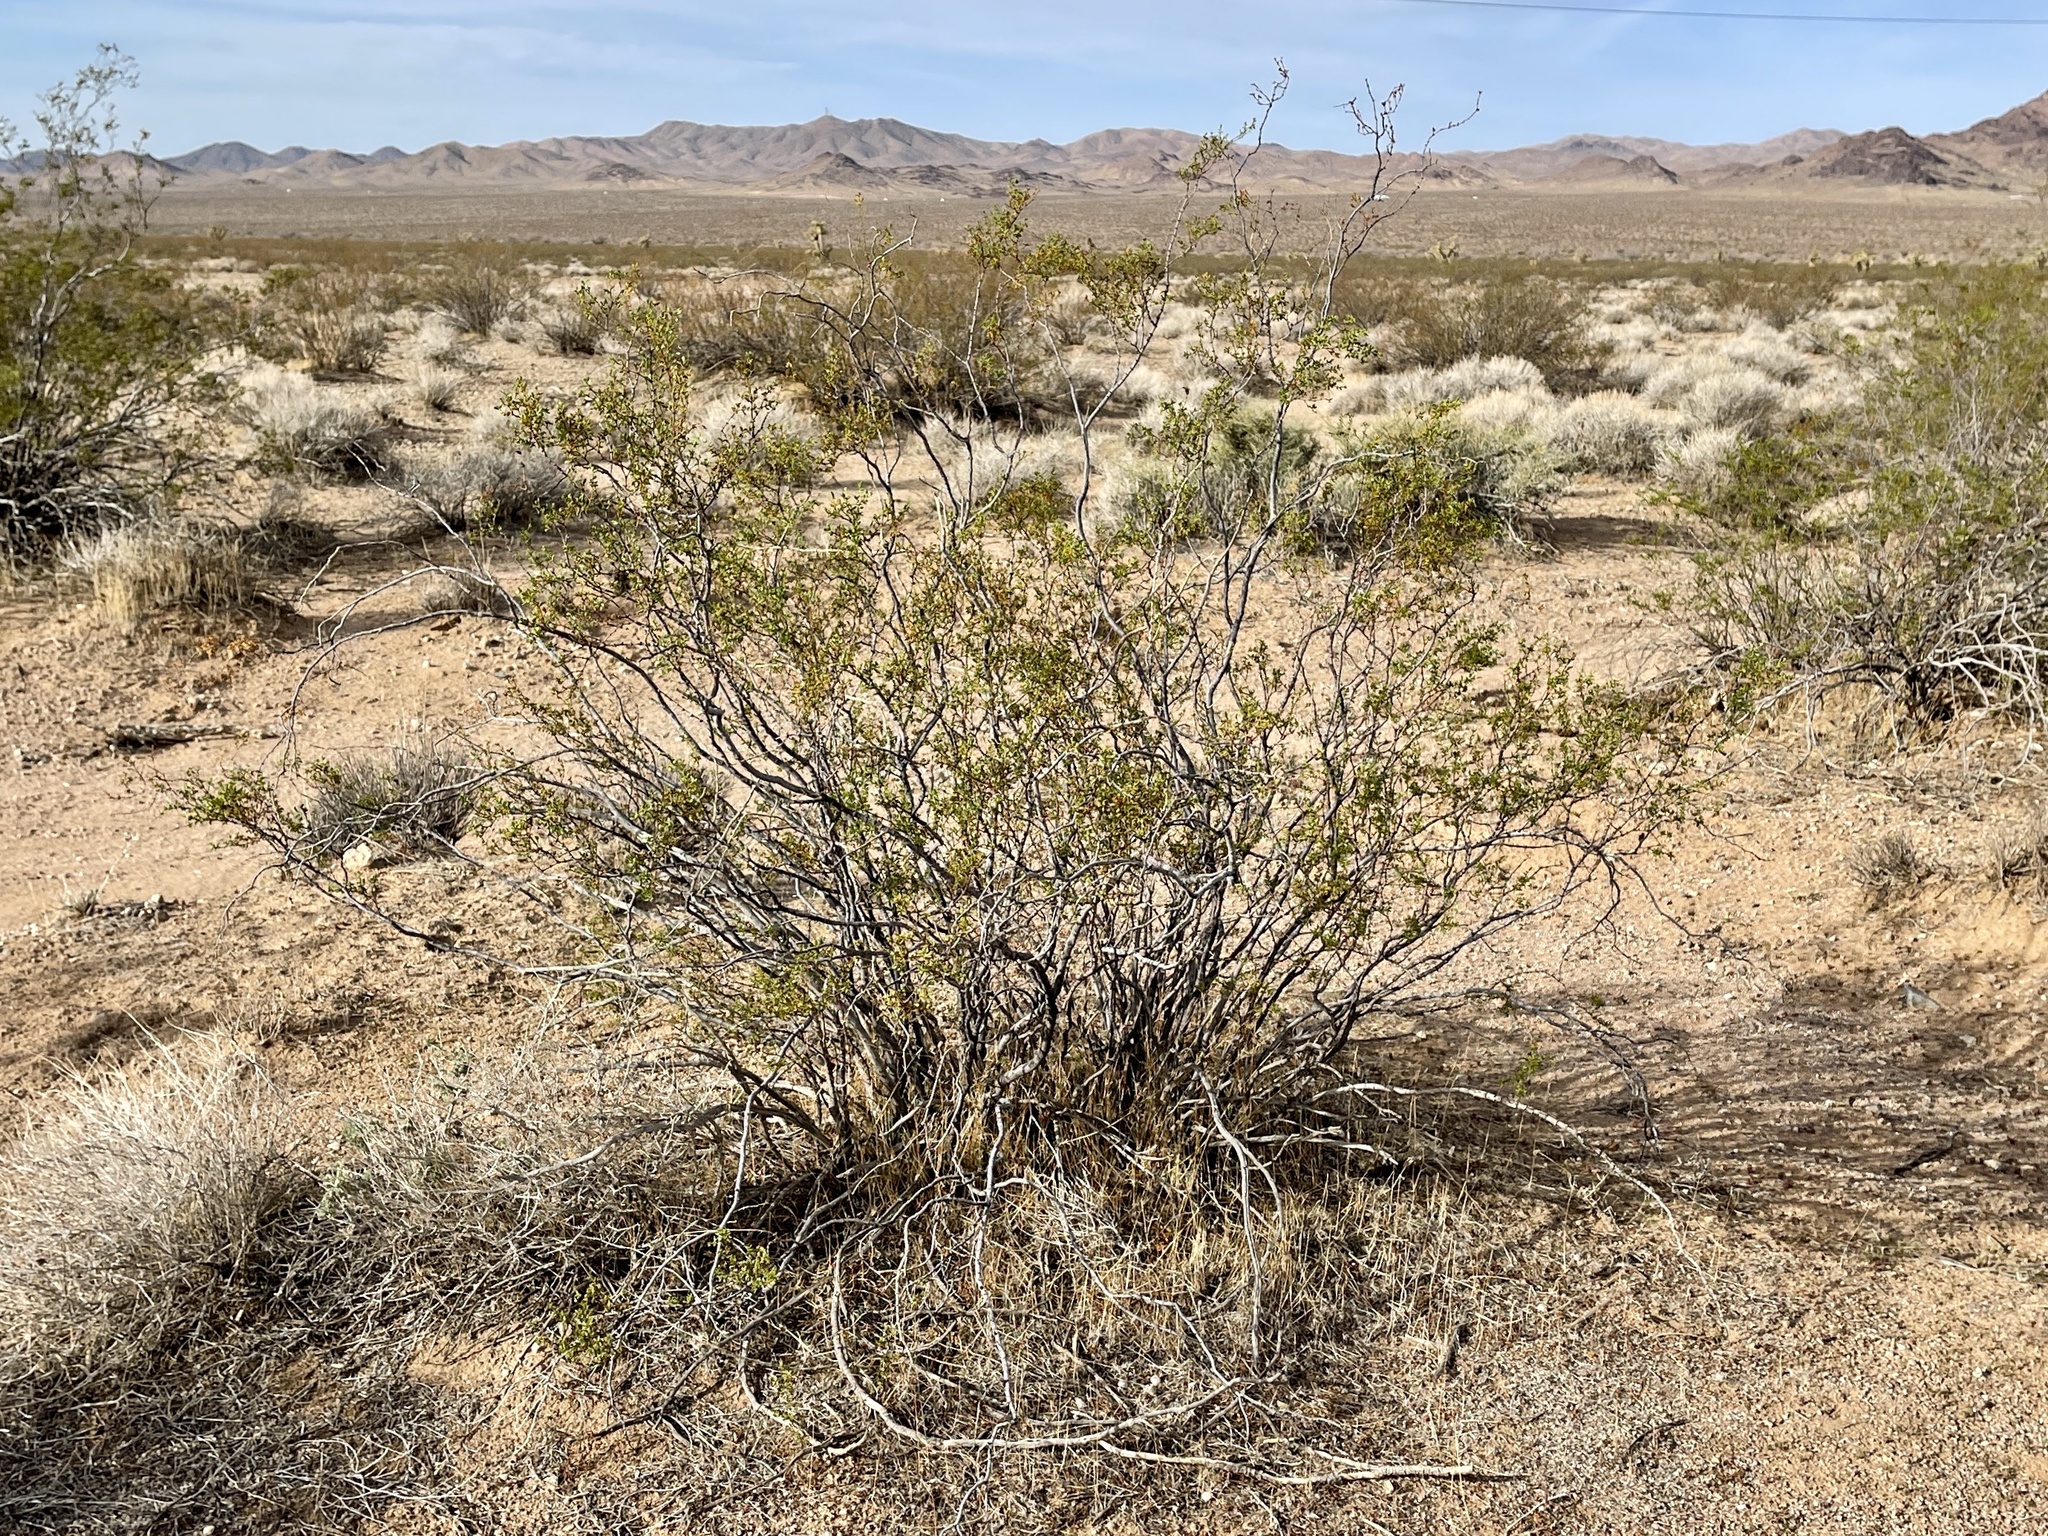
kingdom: Plantae
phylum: Tracheophyta
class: Magnoliopsida
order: Zygophyllales
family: Zygophyllaceae
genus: Larrea
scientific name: Larrea tridentata
